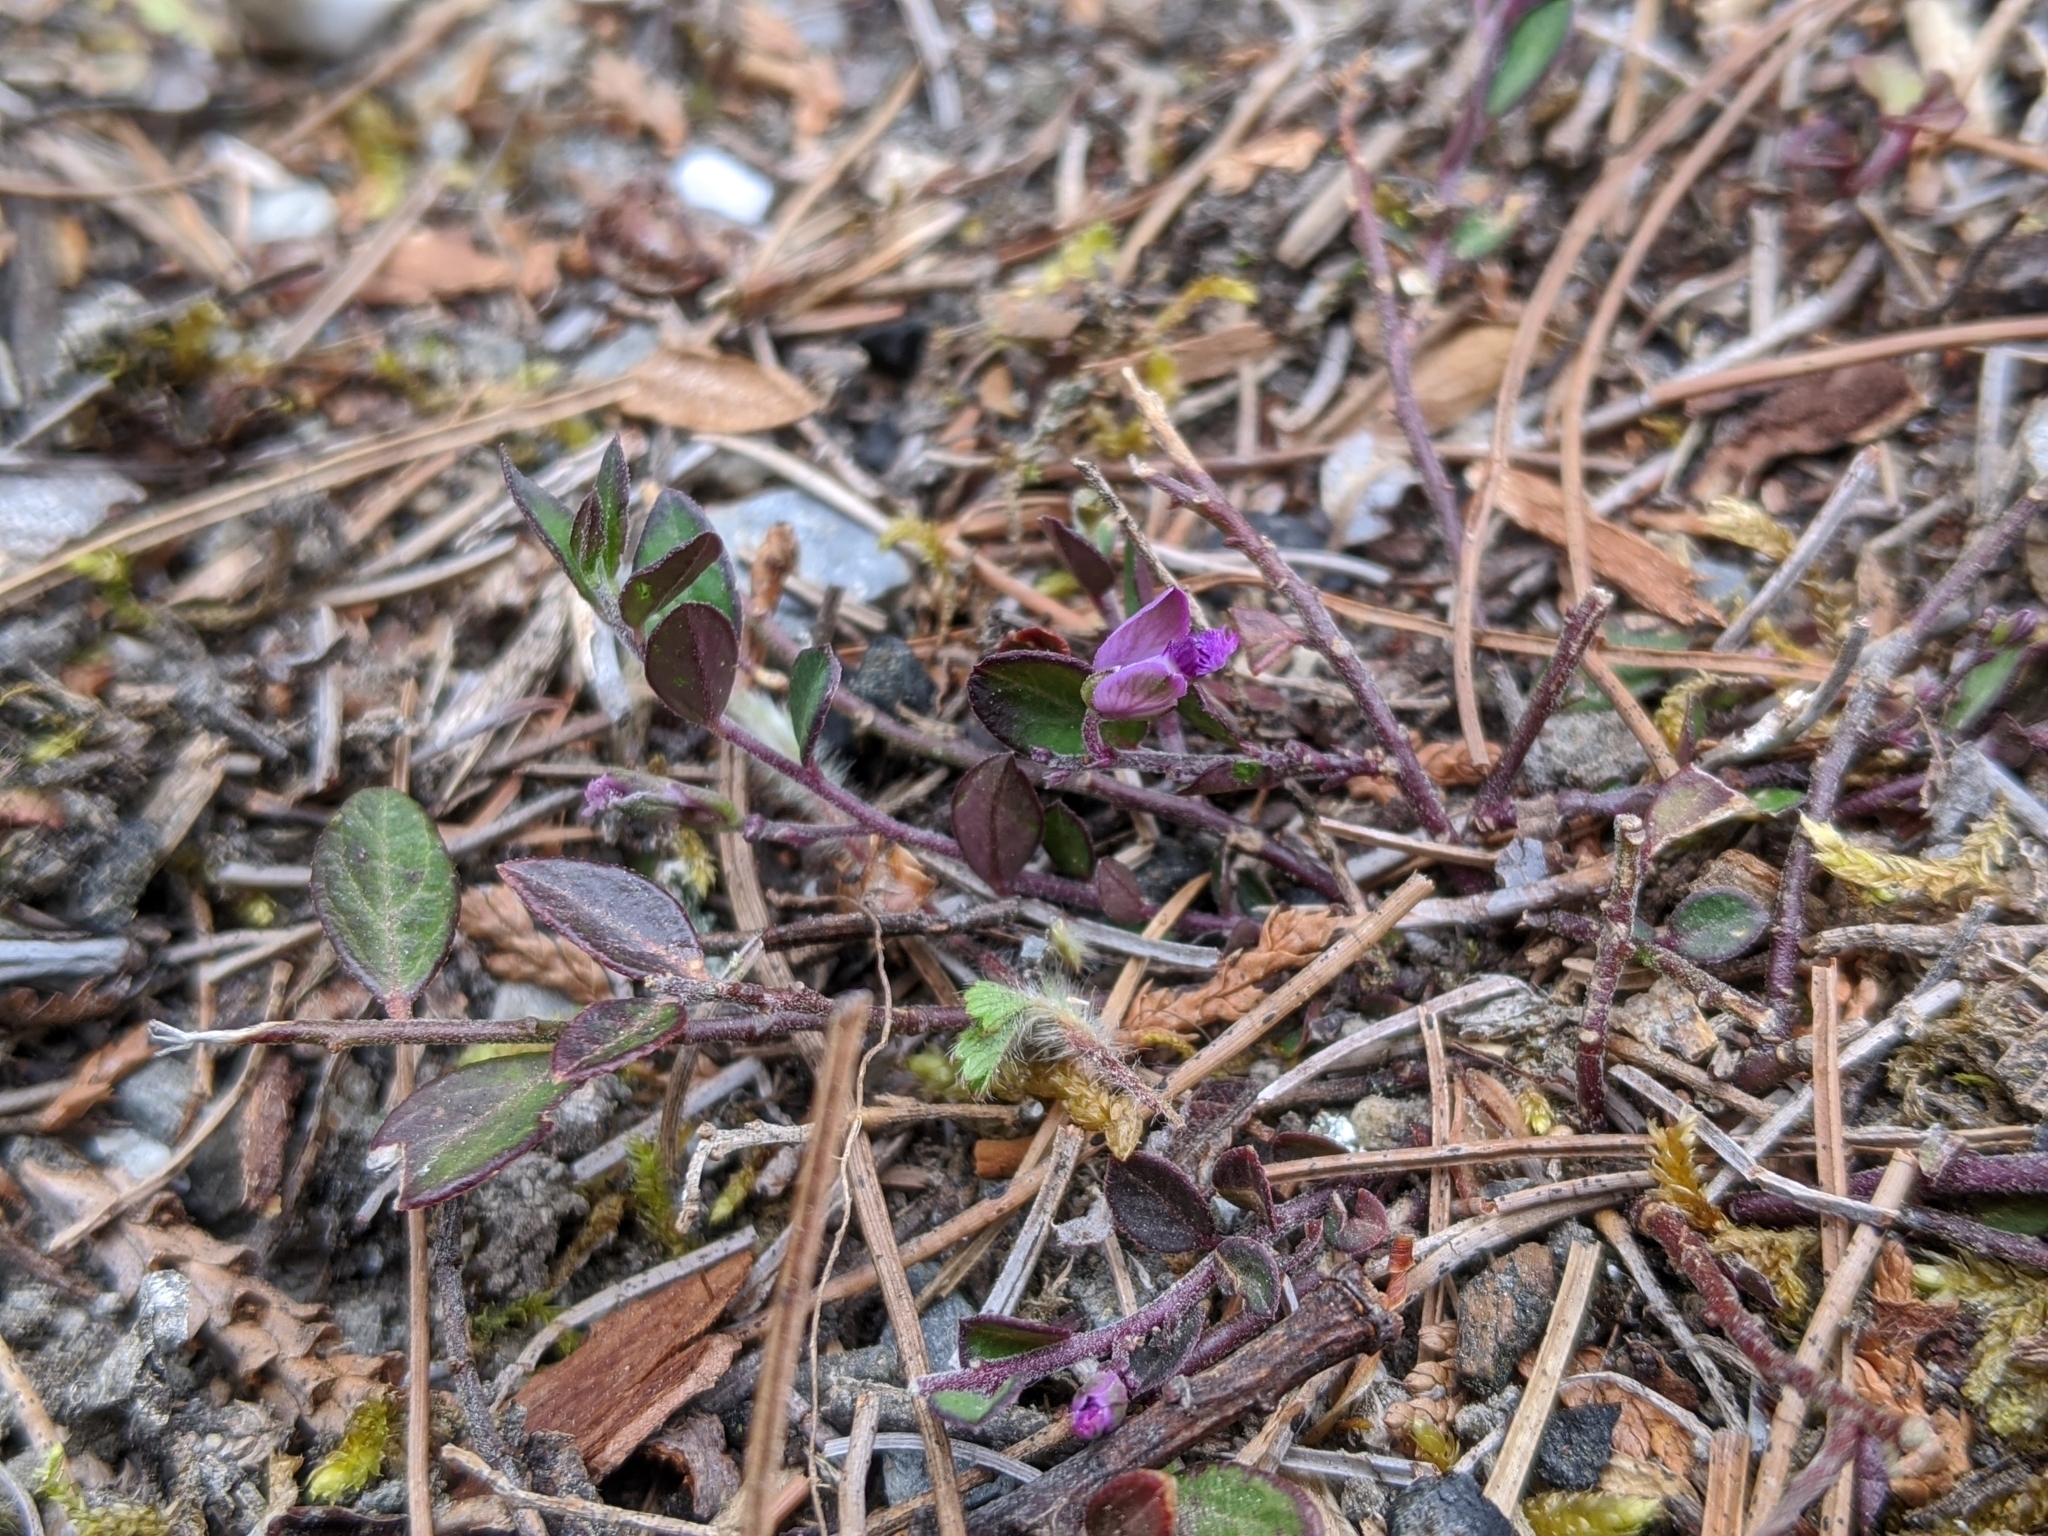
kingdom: Plantae
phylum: Tracheophyta
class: Magnoliopsida
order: Fabales
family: Polygalaceae
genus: Polygala
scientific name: Polygala japonica
